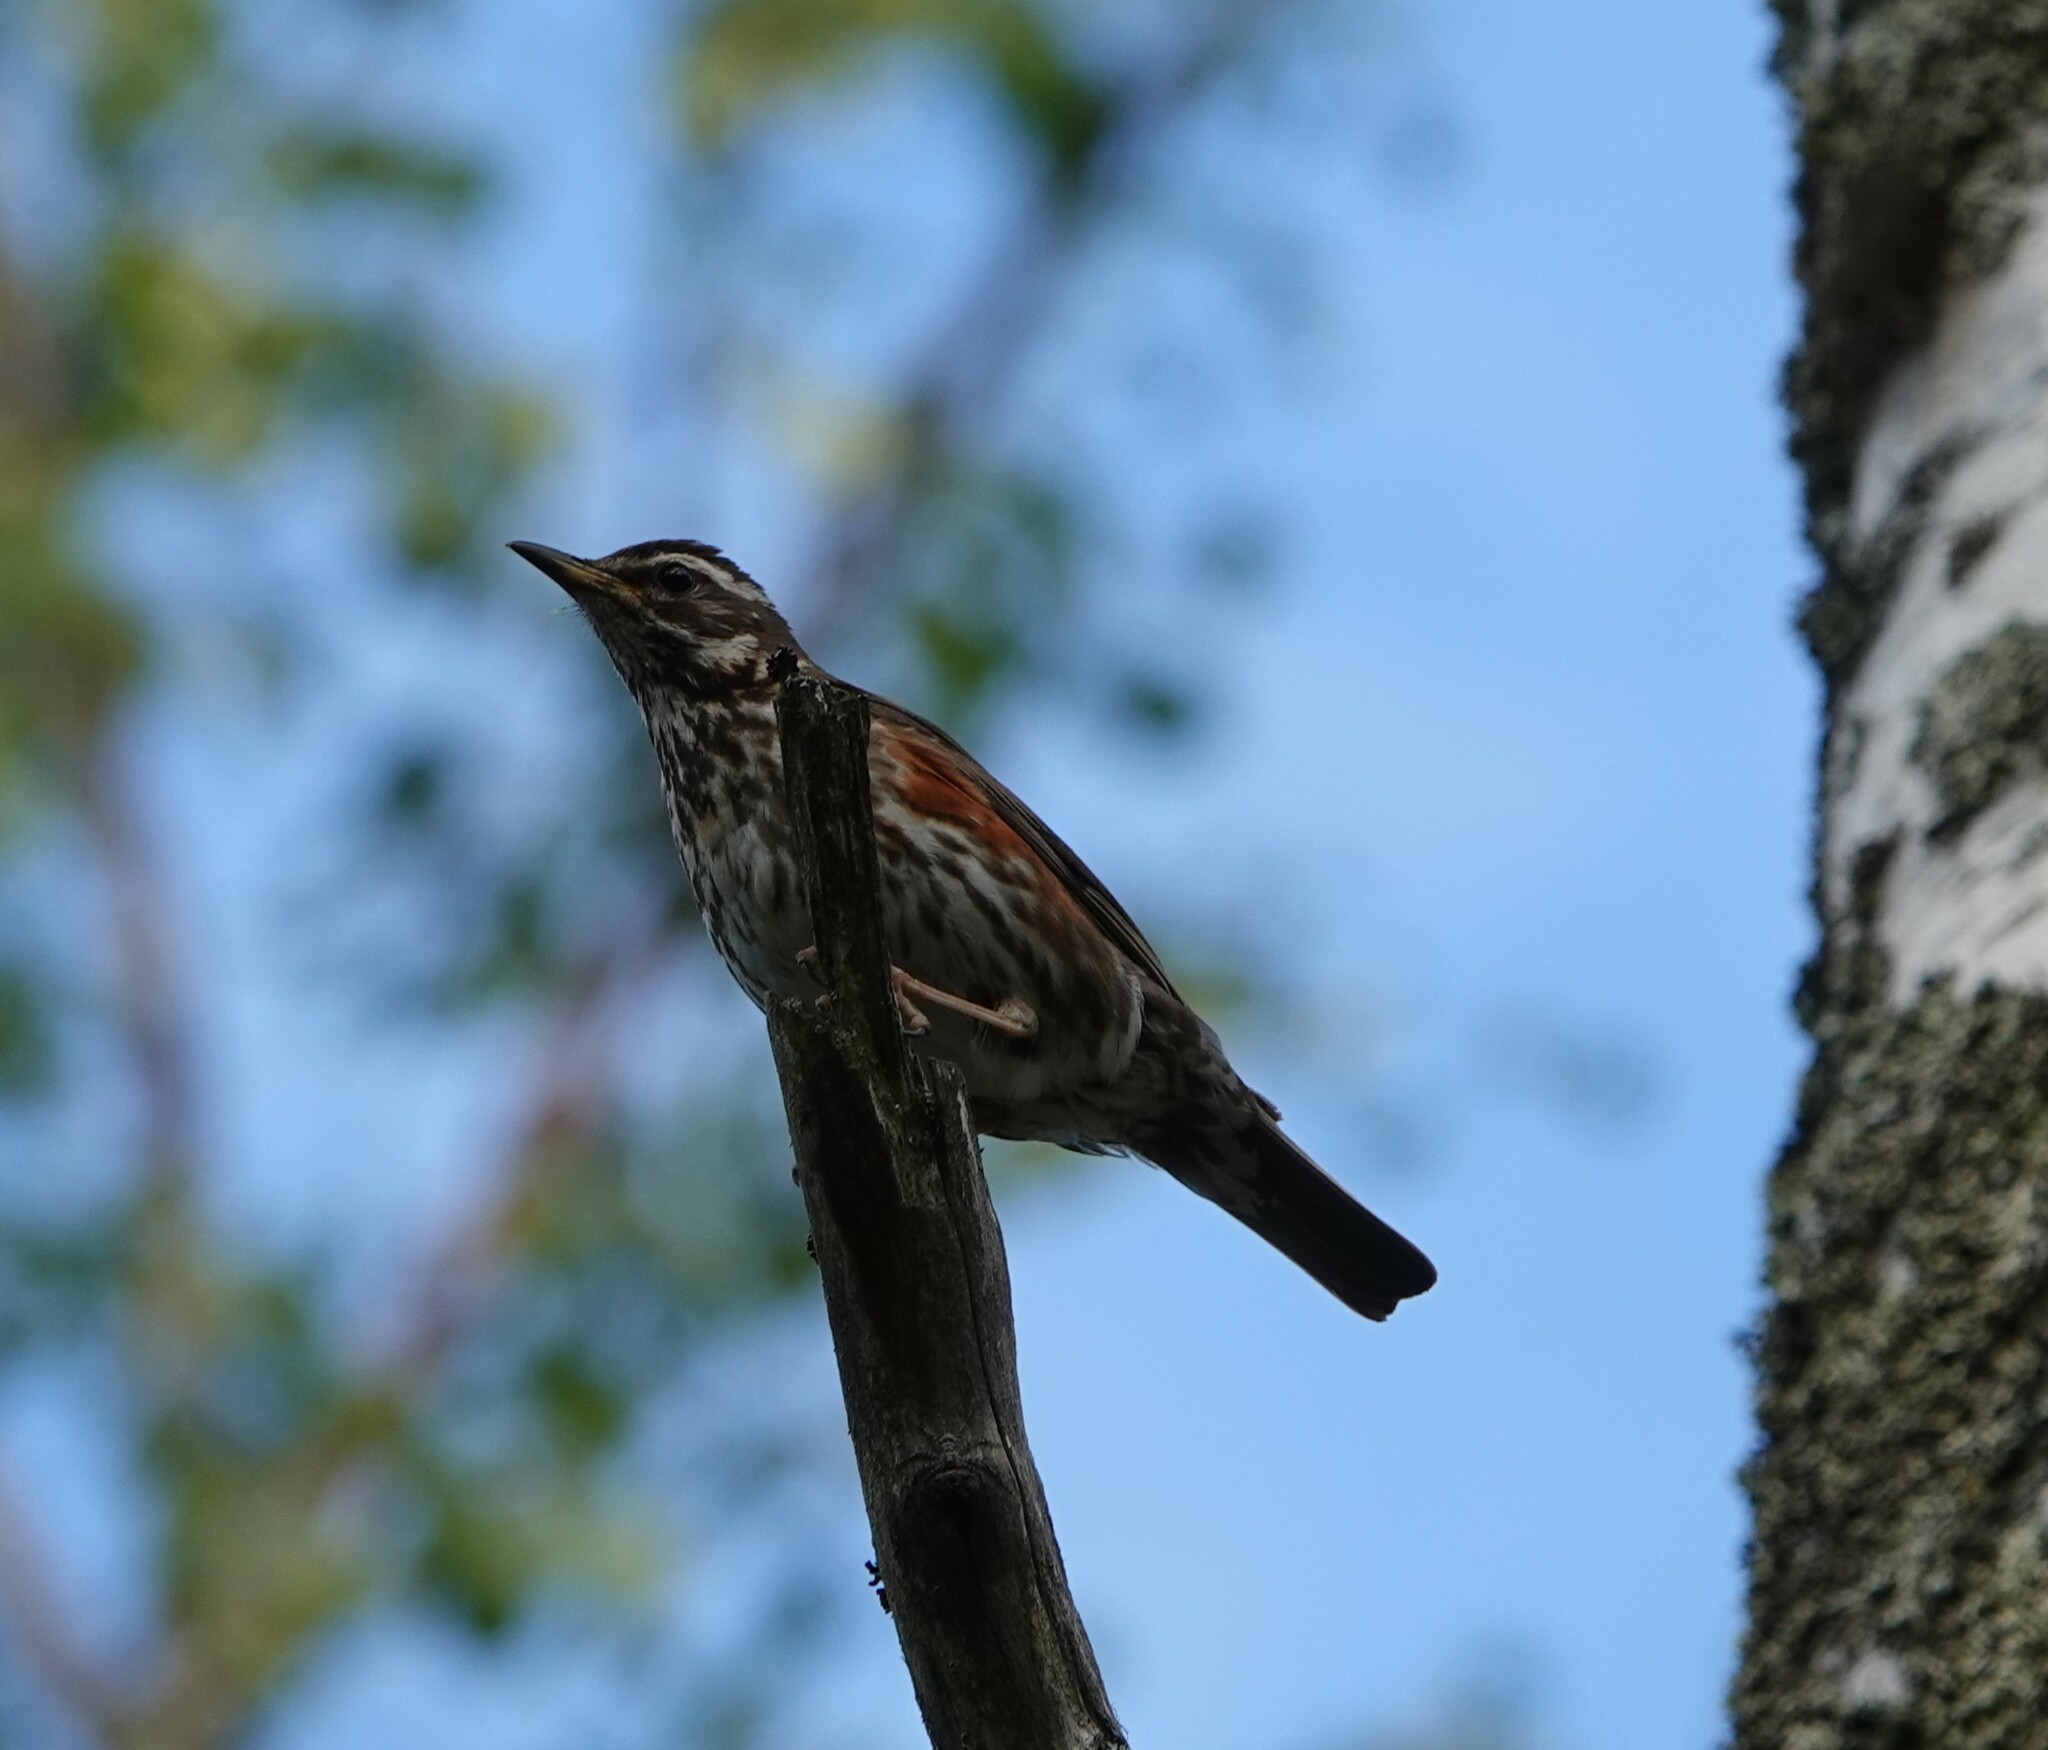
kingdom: Animalia
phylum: Chordata
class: Aves
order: Passeriformes
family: Turdidae
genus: Turdus
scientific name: Turdus iliacus
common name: Redwing
